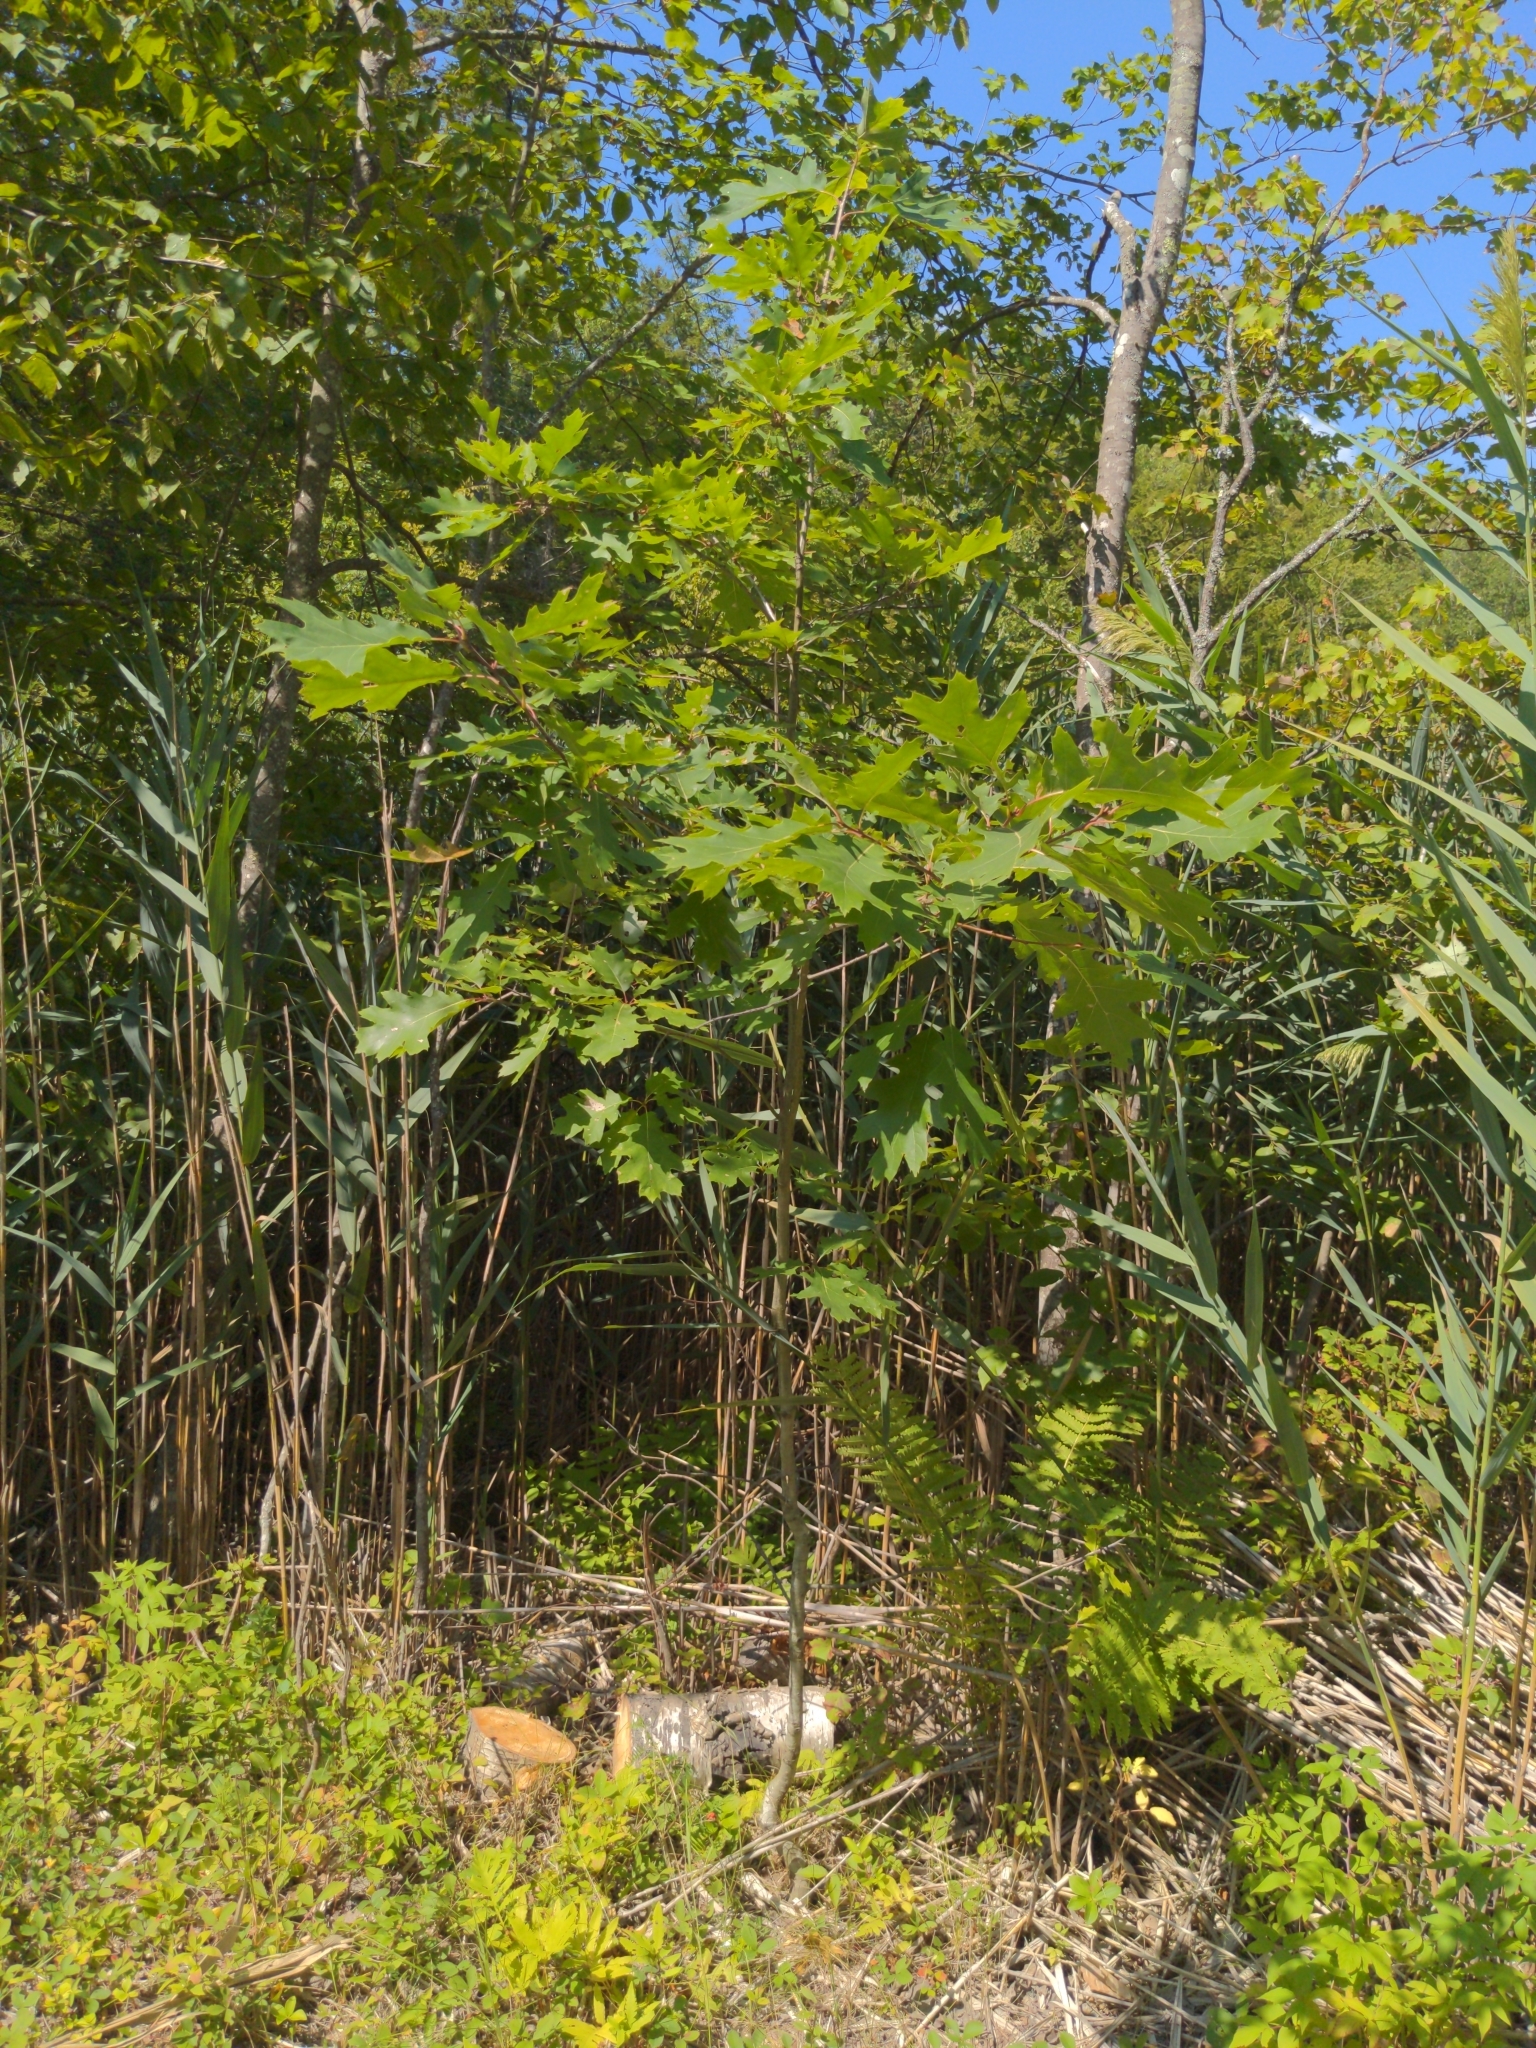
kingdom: Plantae
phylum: Tracheophyta
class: Magnoliopsida
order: Fagales
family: Fagaceae
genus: Quercus
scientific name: Quercus rubra
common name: Red oak
